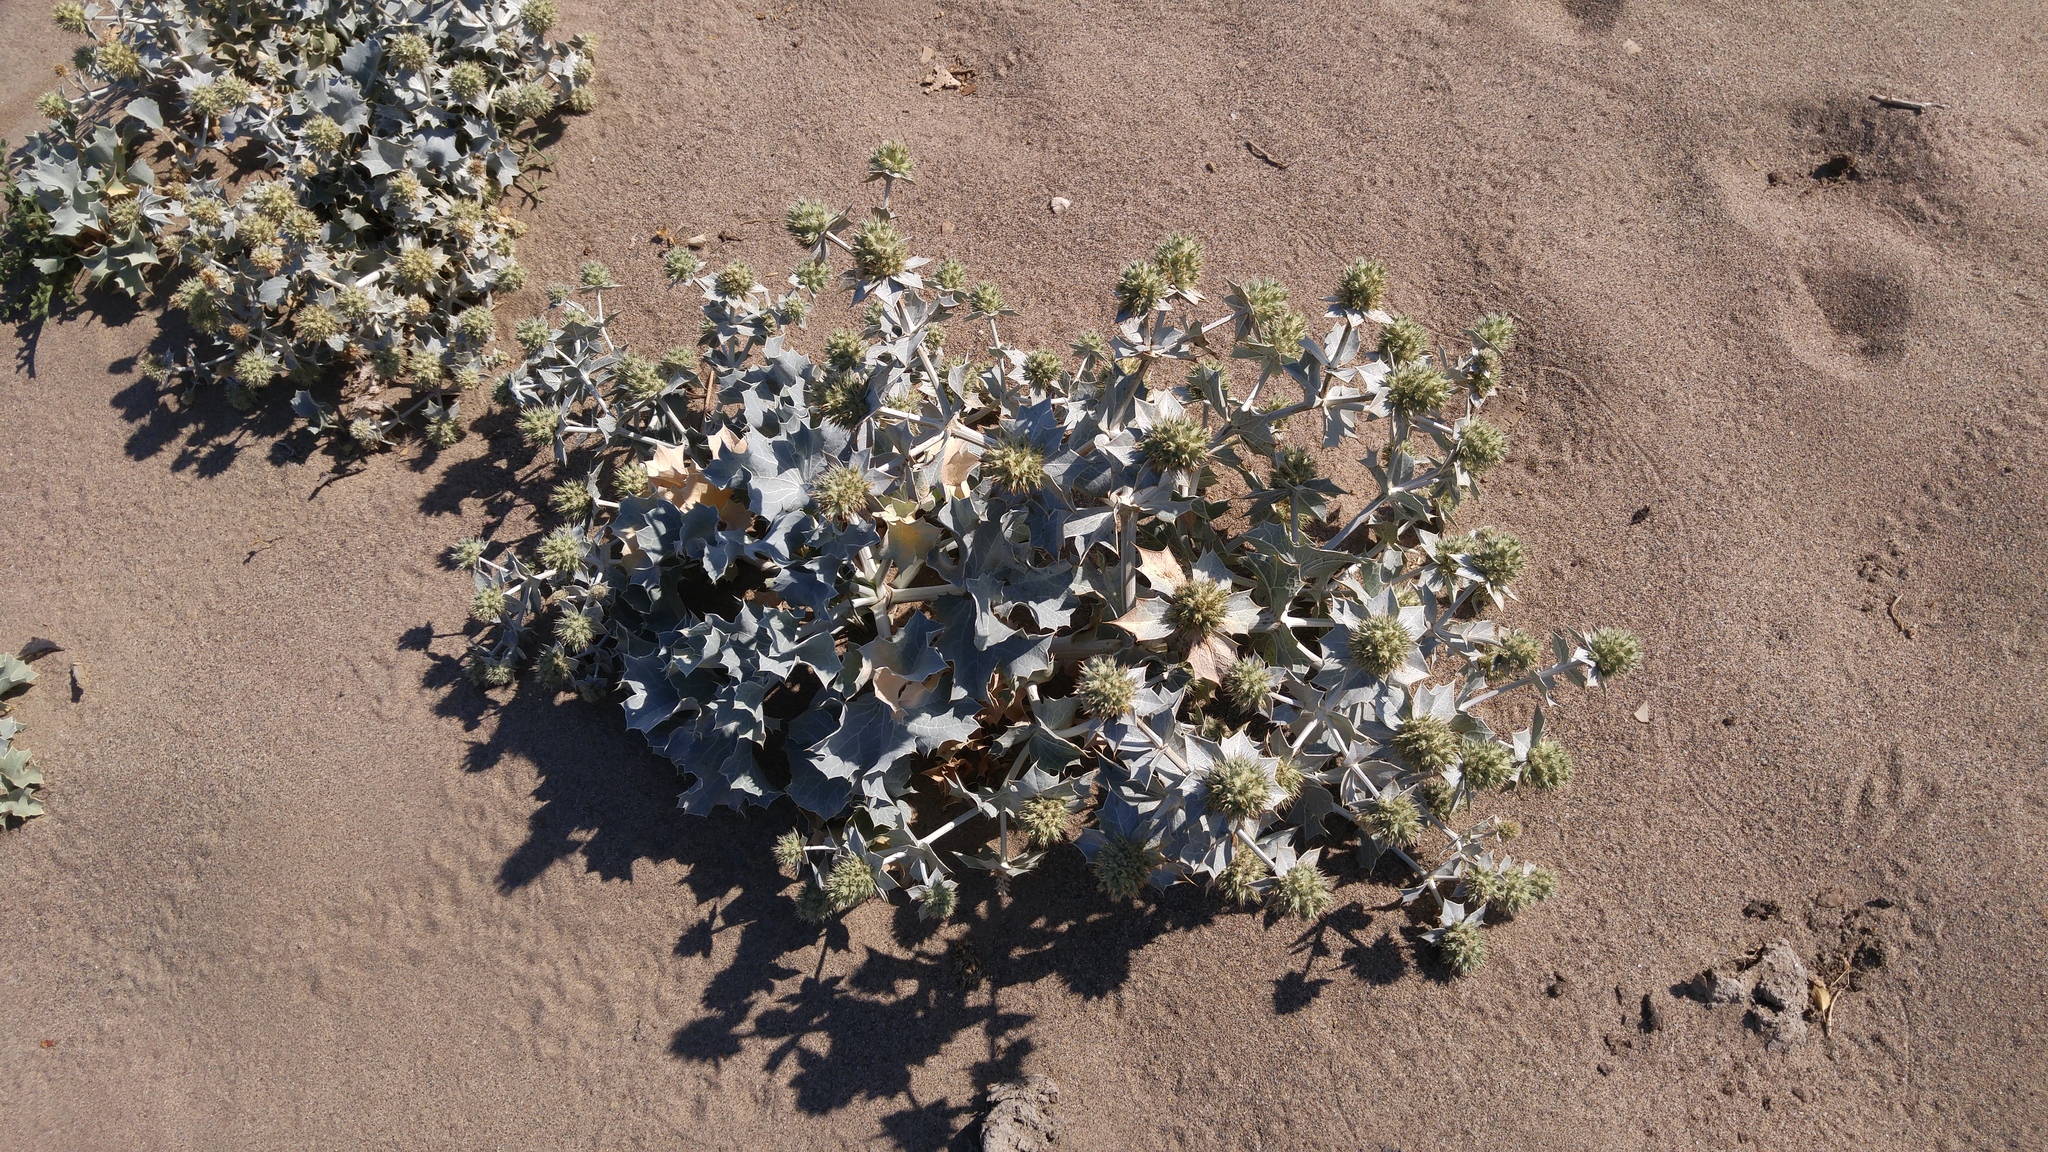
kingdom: Plantae
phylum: Tracheophyta
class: Magnoliopsida
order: Apiales
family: Apiaceae
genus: Eryngium
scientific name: Eryngium maritimum
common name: Sea-holly
